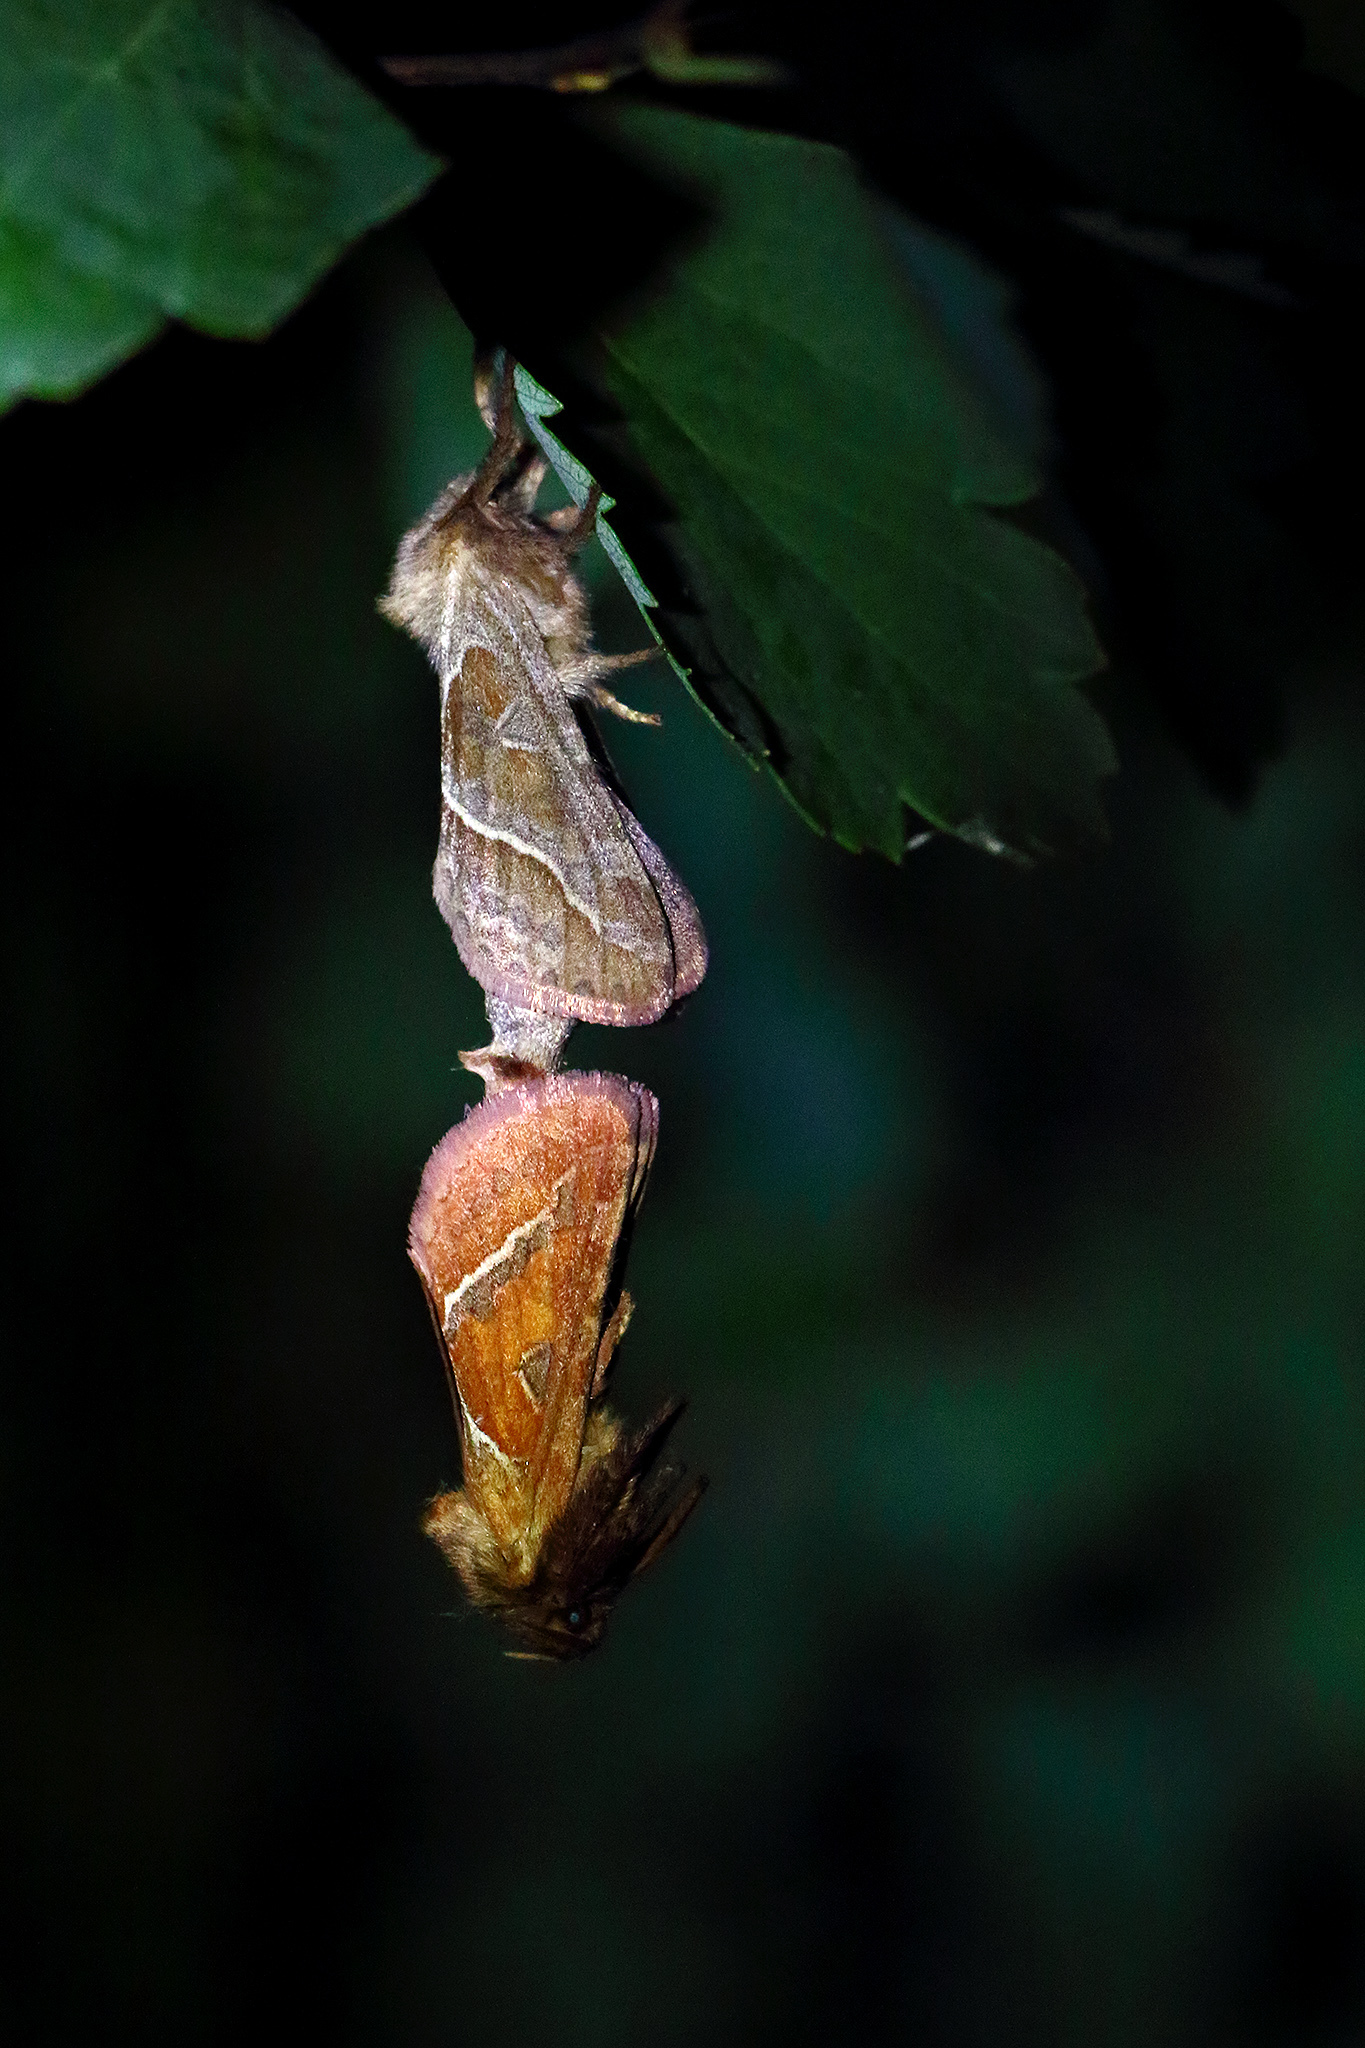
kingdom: Animalia
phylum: Arthropoda
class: Insecta
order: Lepidoptera
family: Hepialidae
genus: Triodia
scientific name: Triodia sylvina
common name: Orange swift
